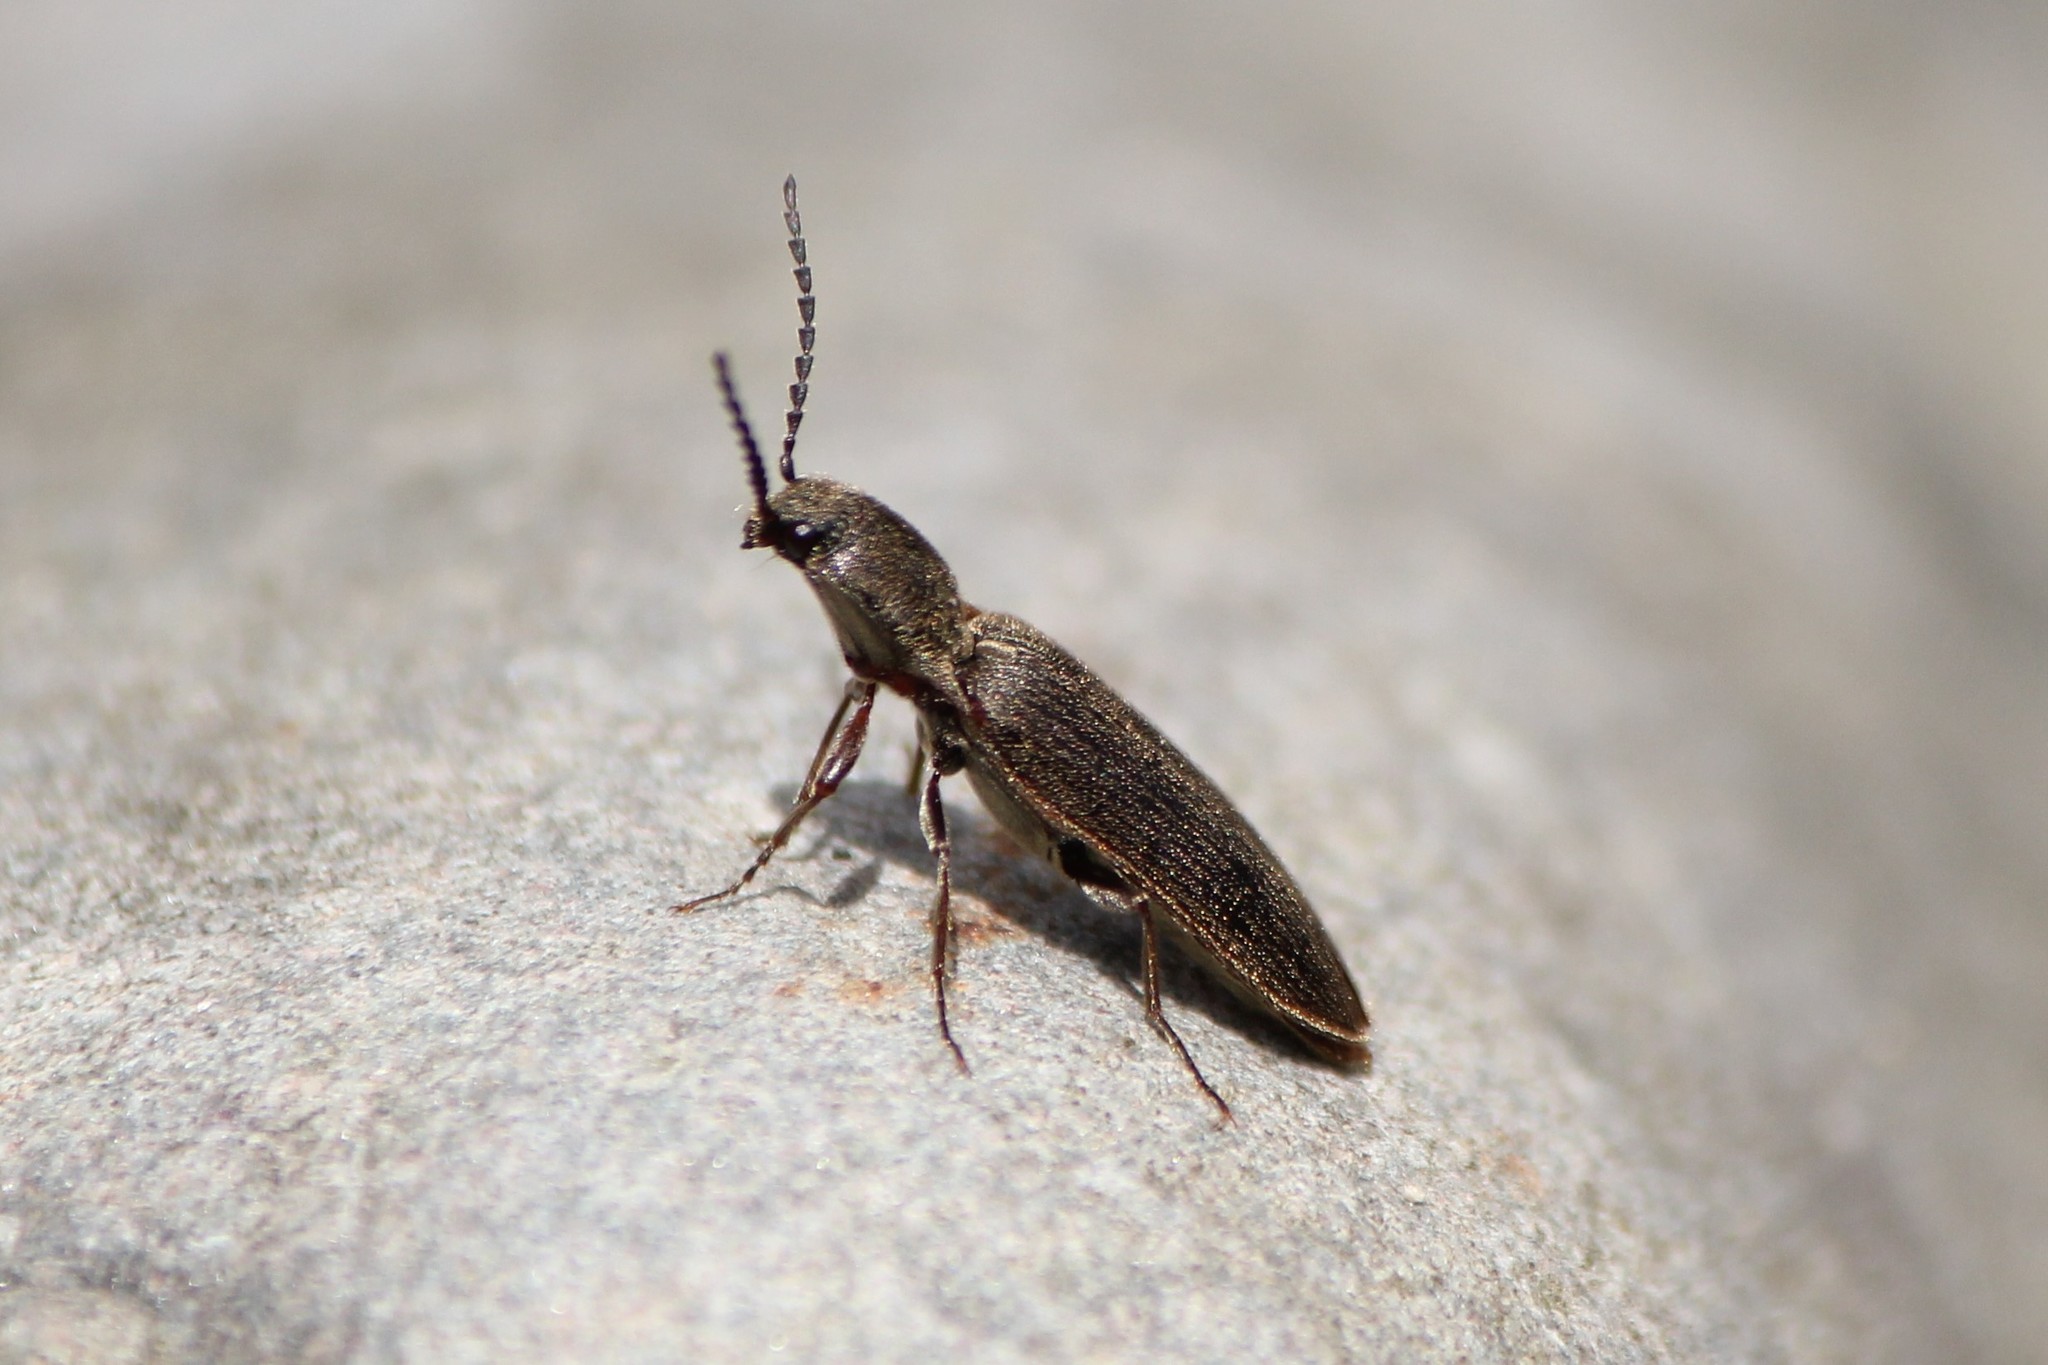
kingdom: Animalia
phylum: Arthropoda
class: Insecta
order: Coleoptera
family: Elateridae
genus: Sylvanelater
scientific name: Sylvanelater cylindriformis
